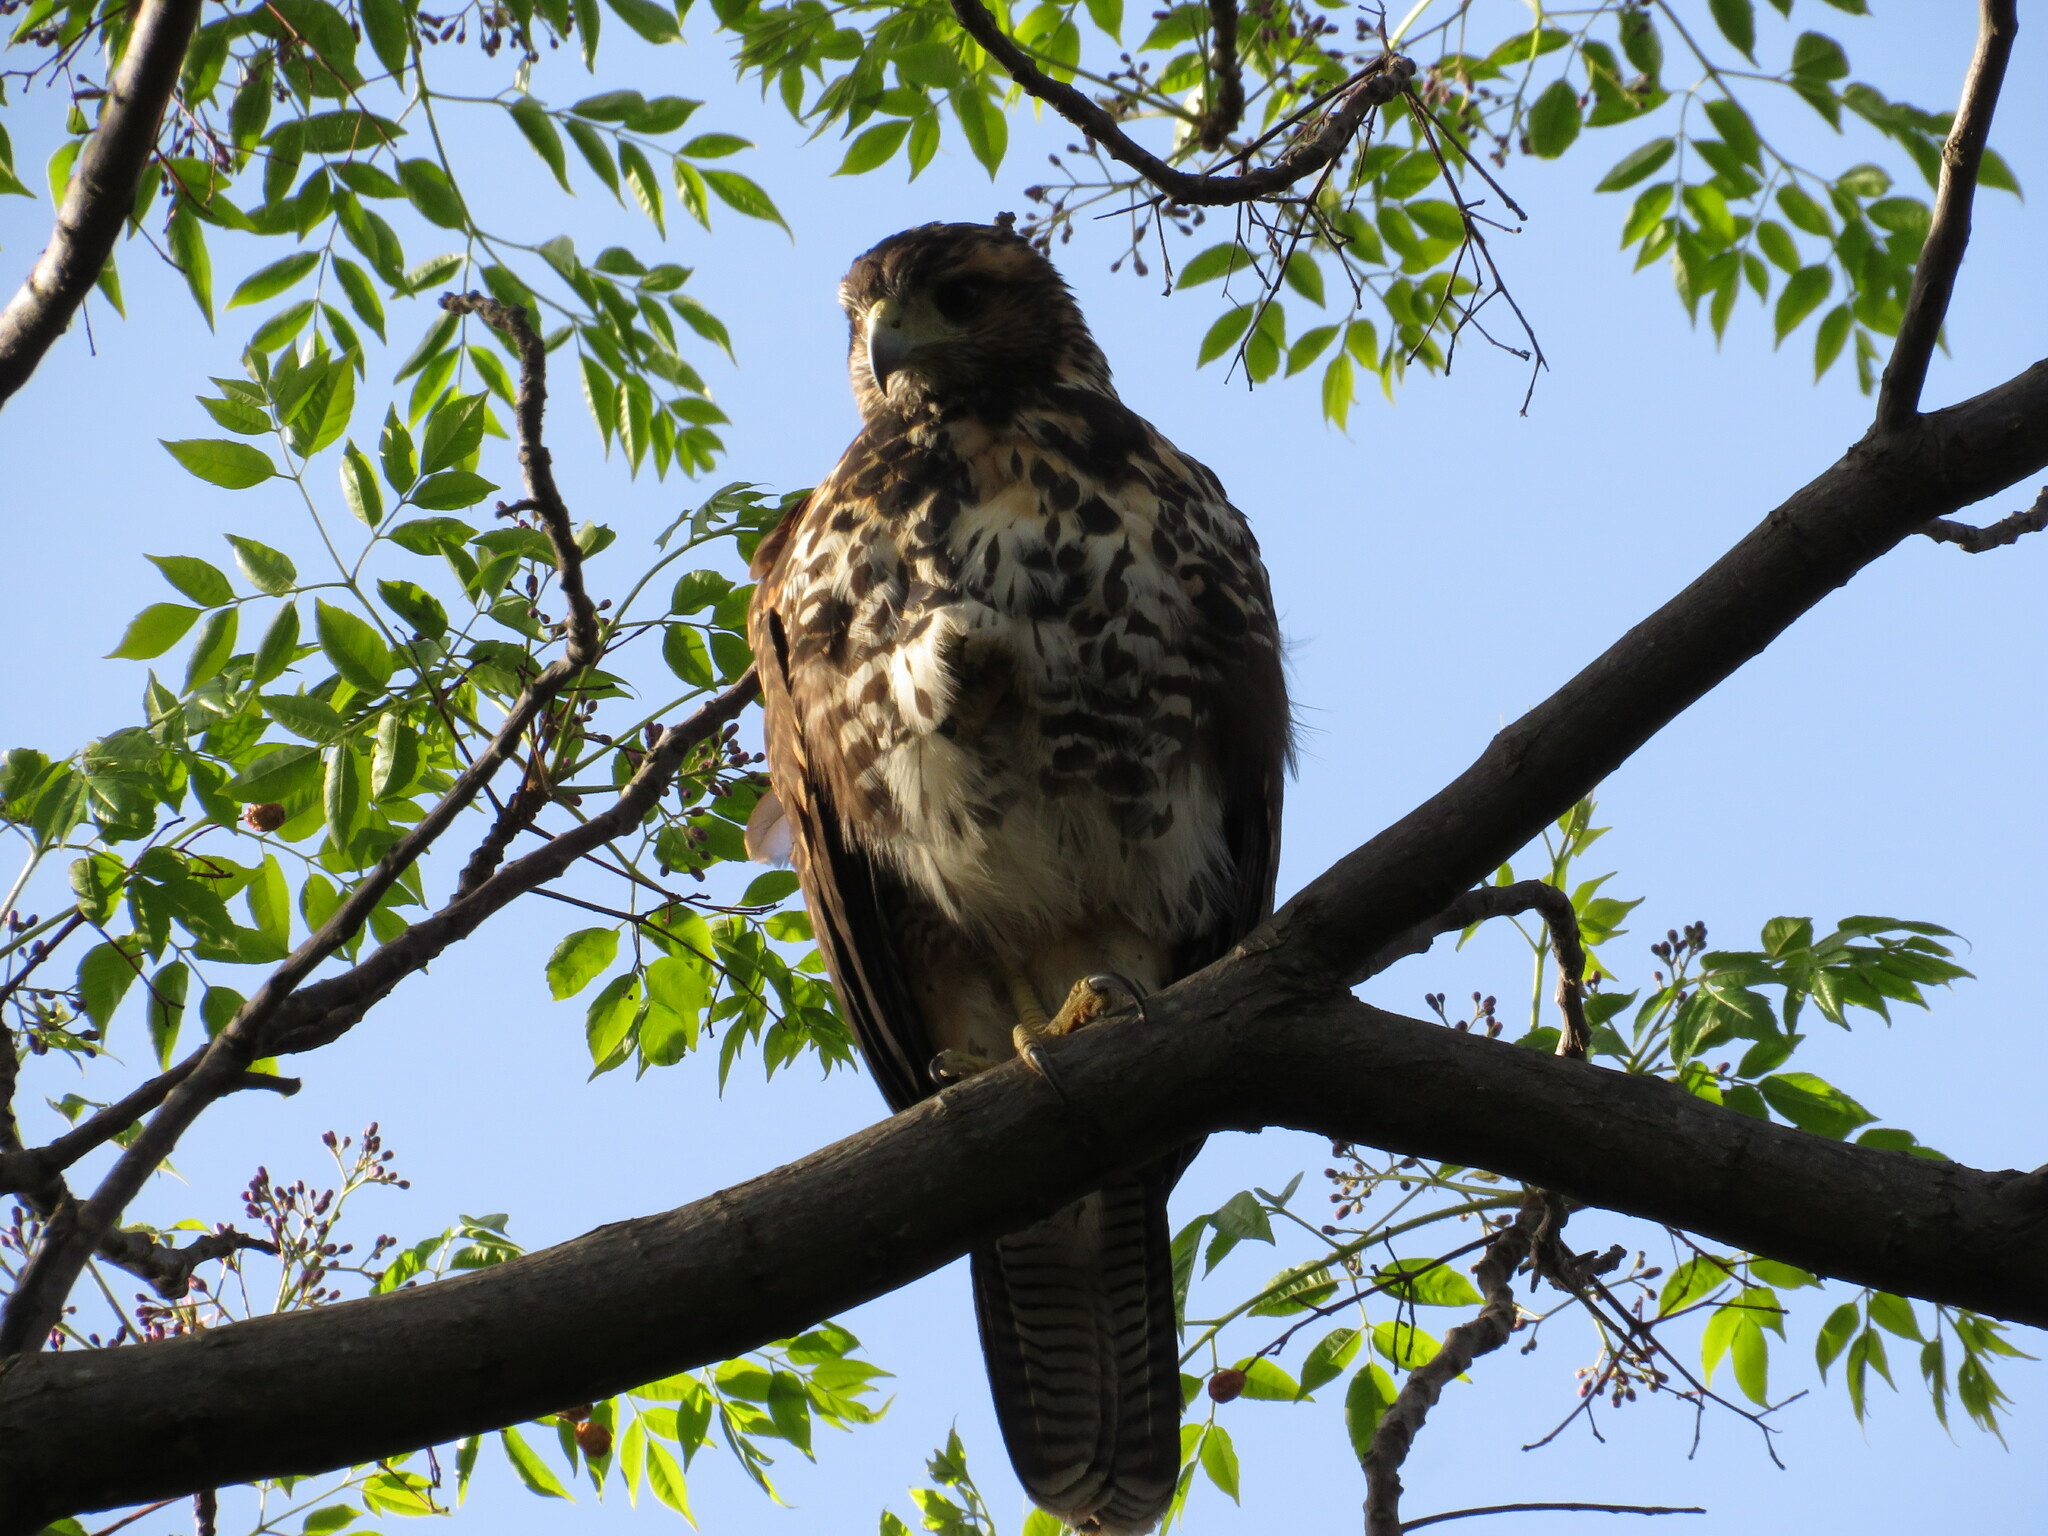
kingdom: Animalia
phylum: Chordata
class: Aves
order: Accipitriformes
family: Accipitridae
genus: Parabuteo
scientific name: Parabuteo unicinctus
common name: Harris's hawk
